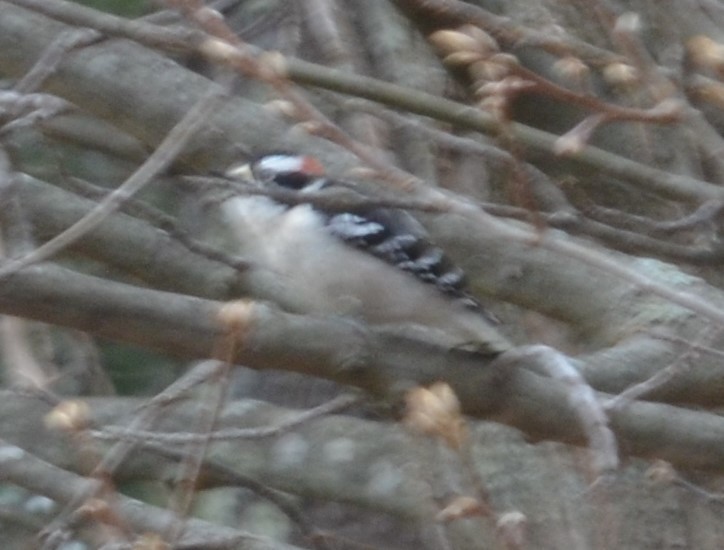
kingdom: Animalia
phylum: Chordata
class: Aves
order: Piciformes
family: Picidae
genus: Dryobates
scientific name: Dryobates pubescens
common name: Downy woodpecker
